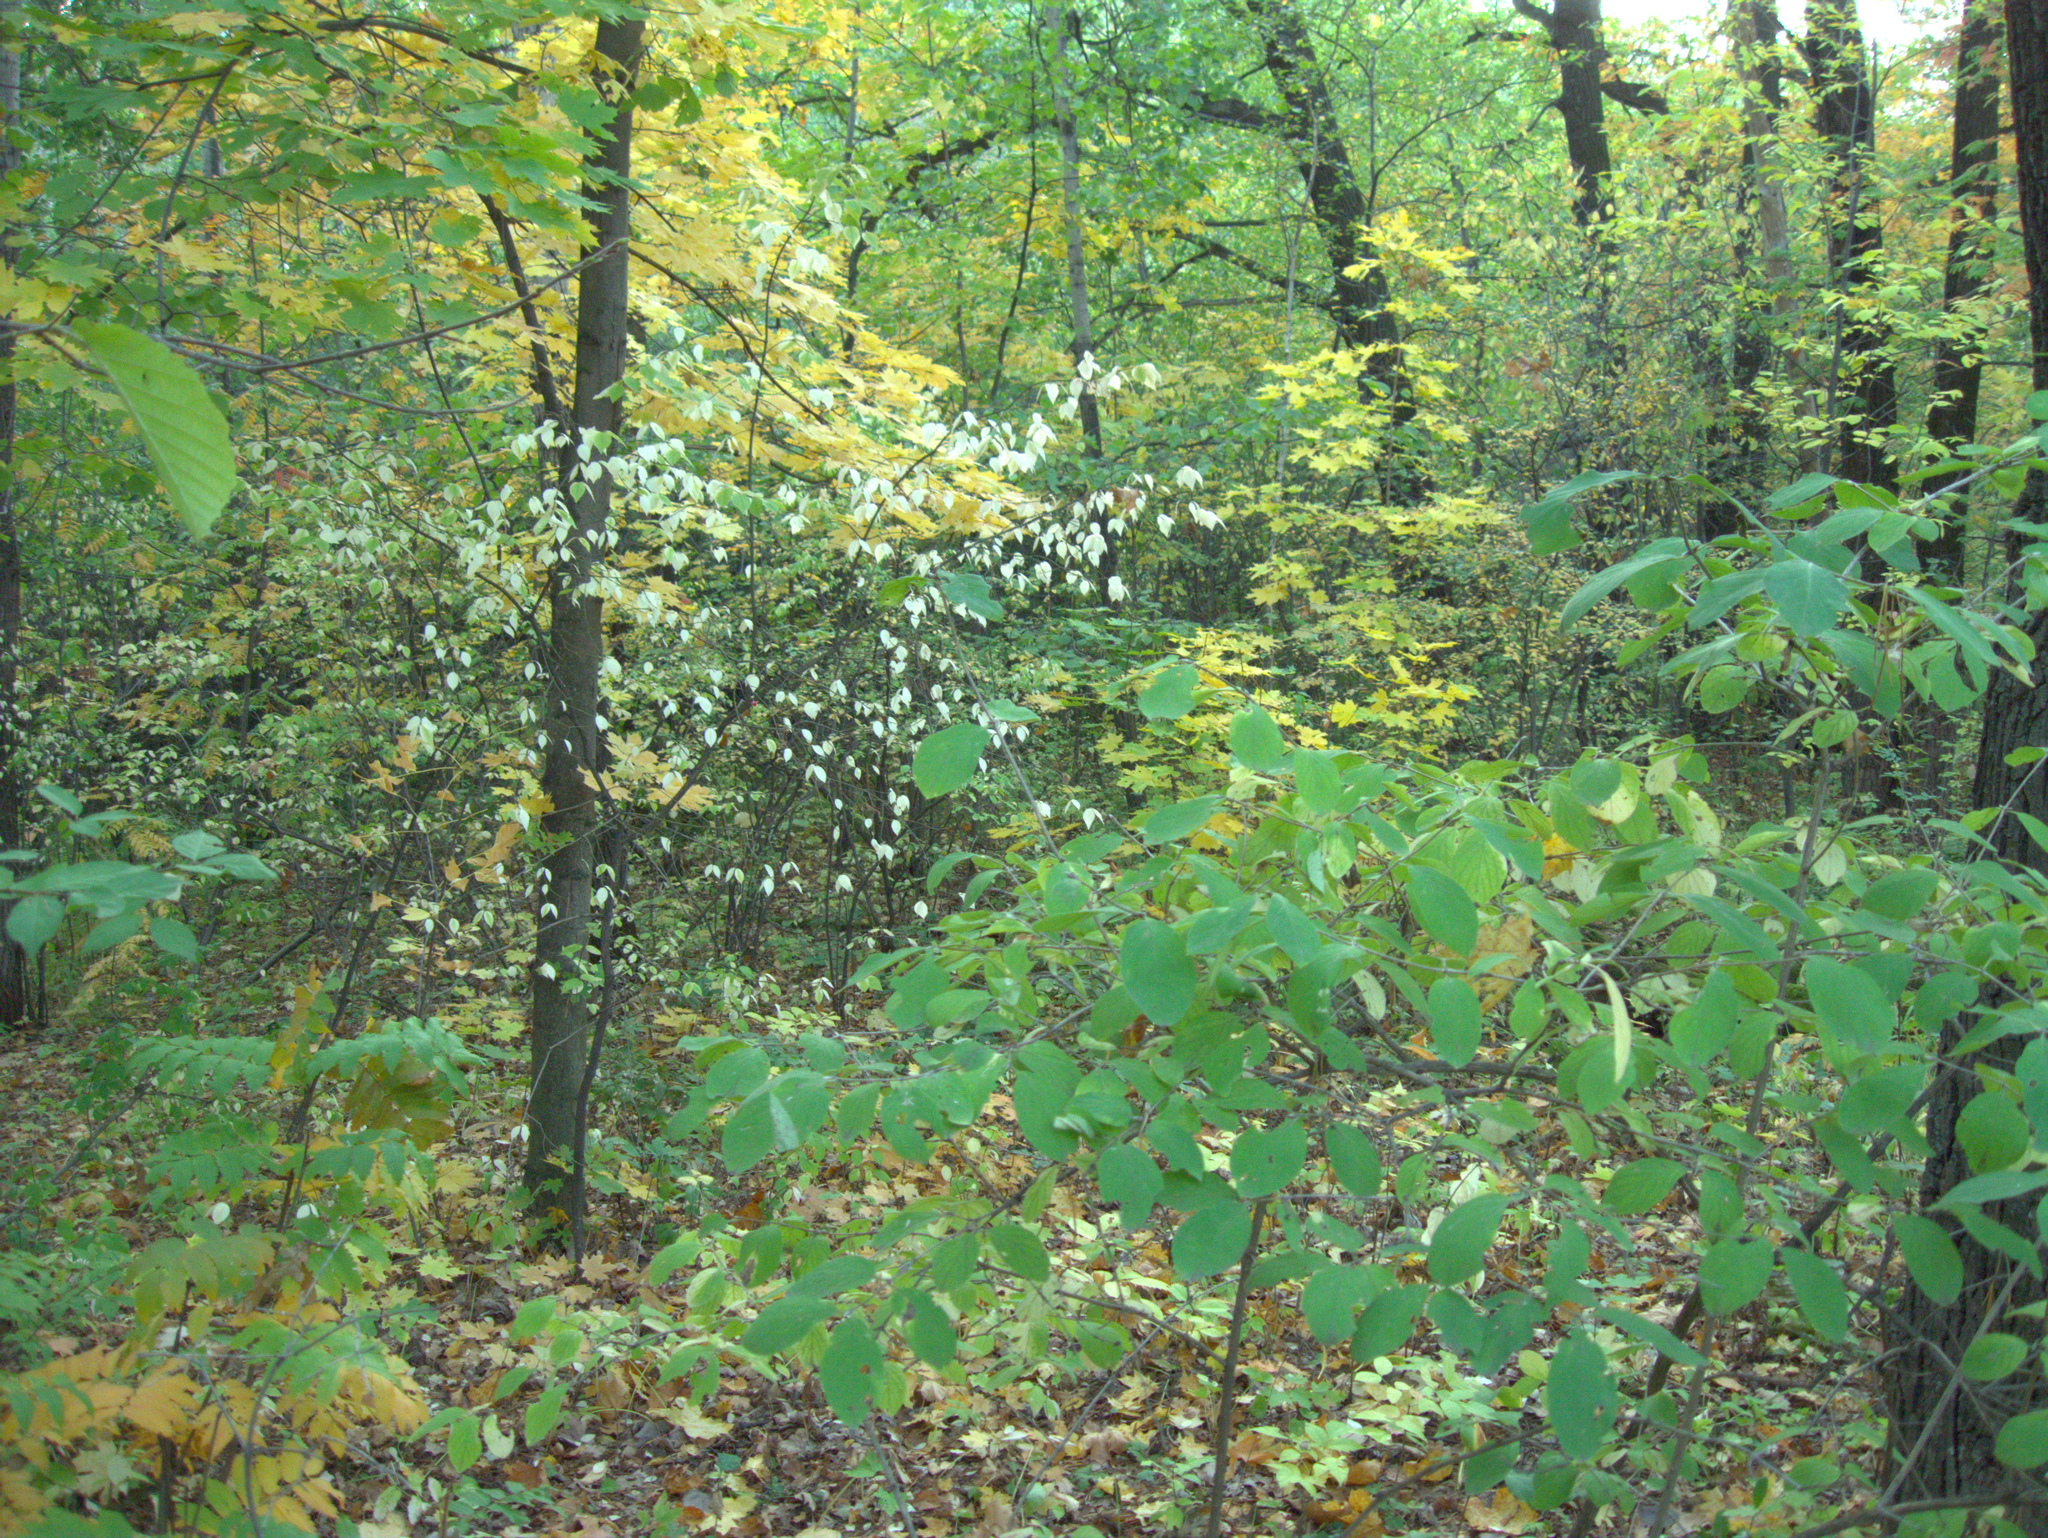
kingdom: Plantae
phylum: Tracheophyta
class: Magnoliopsida
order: Dipsacales
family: Caprifoliaceae
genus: Lonicera
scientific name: Lonicera xylosteum
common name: Fly honeysuckle
